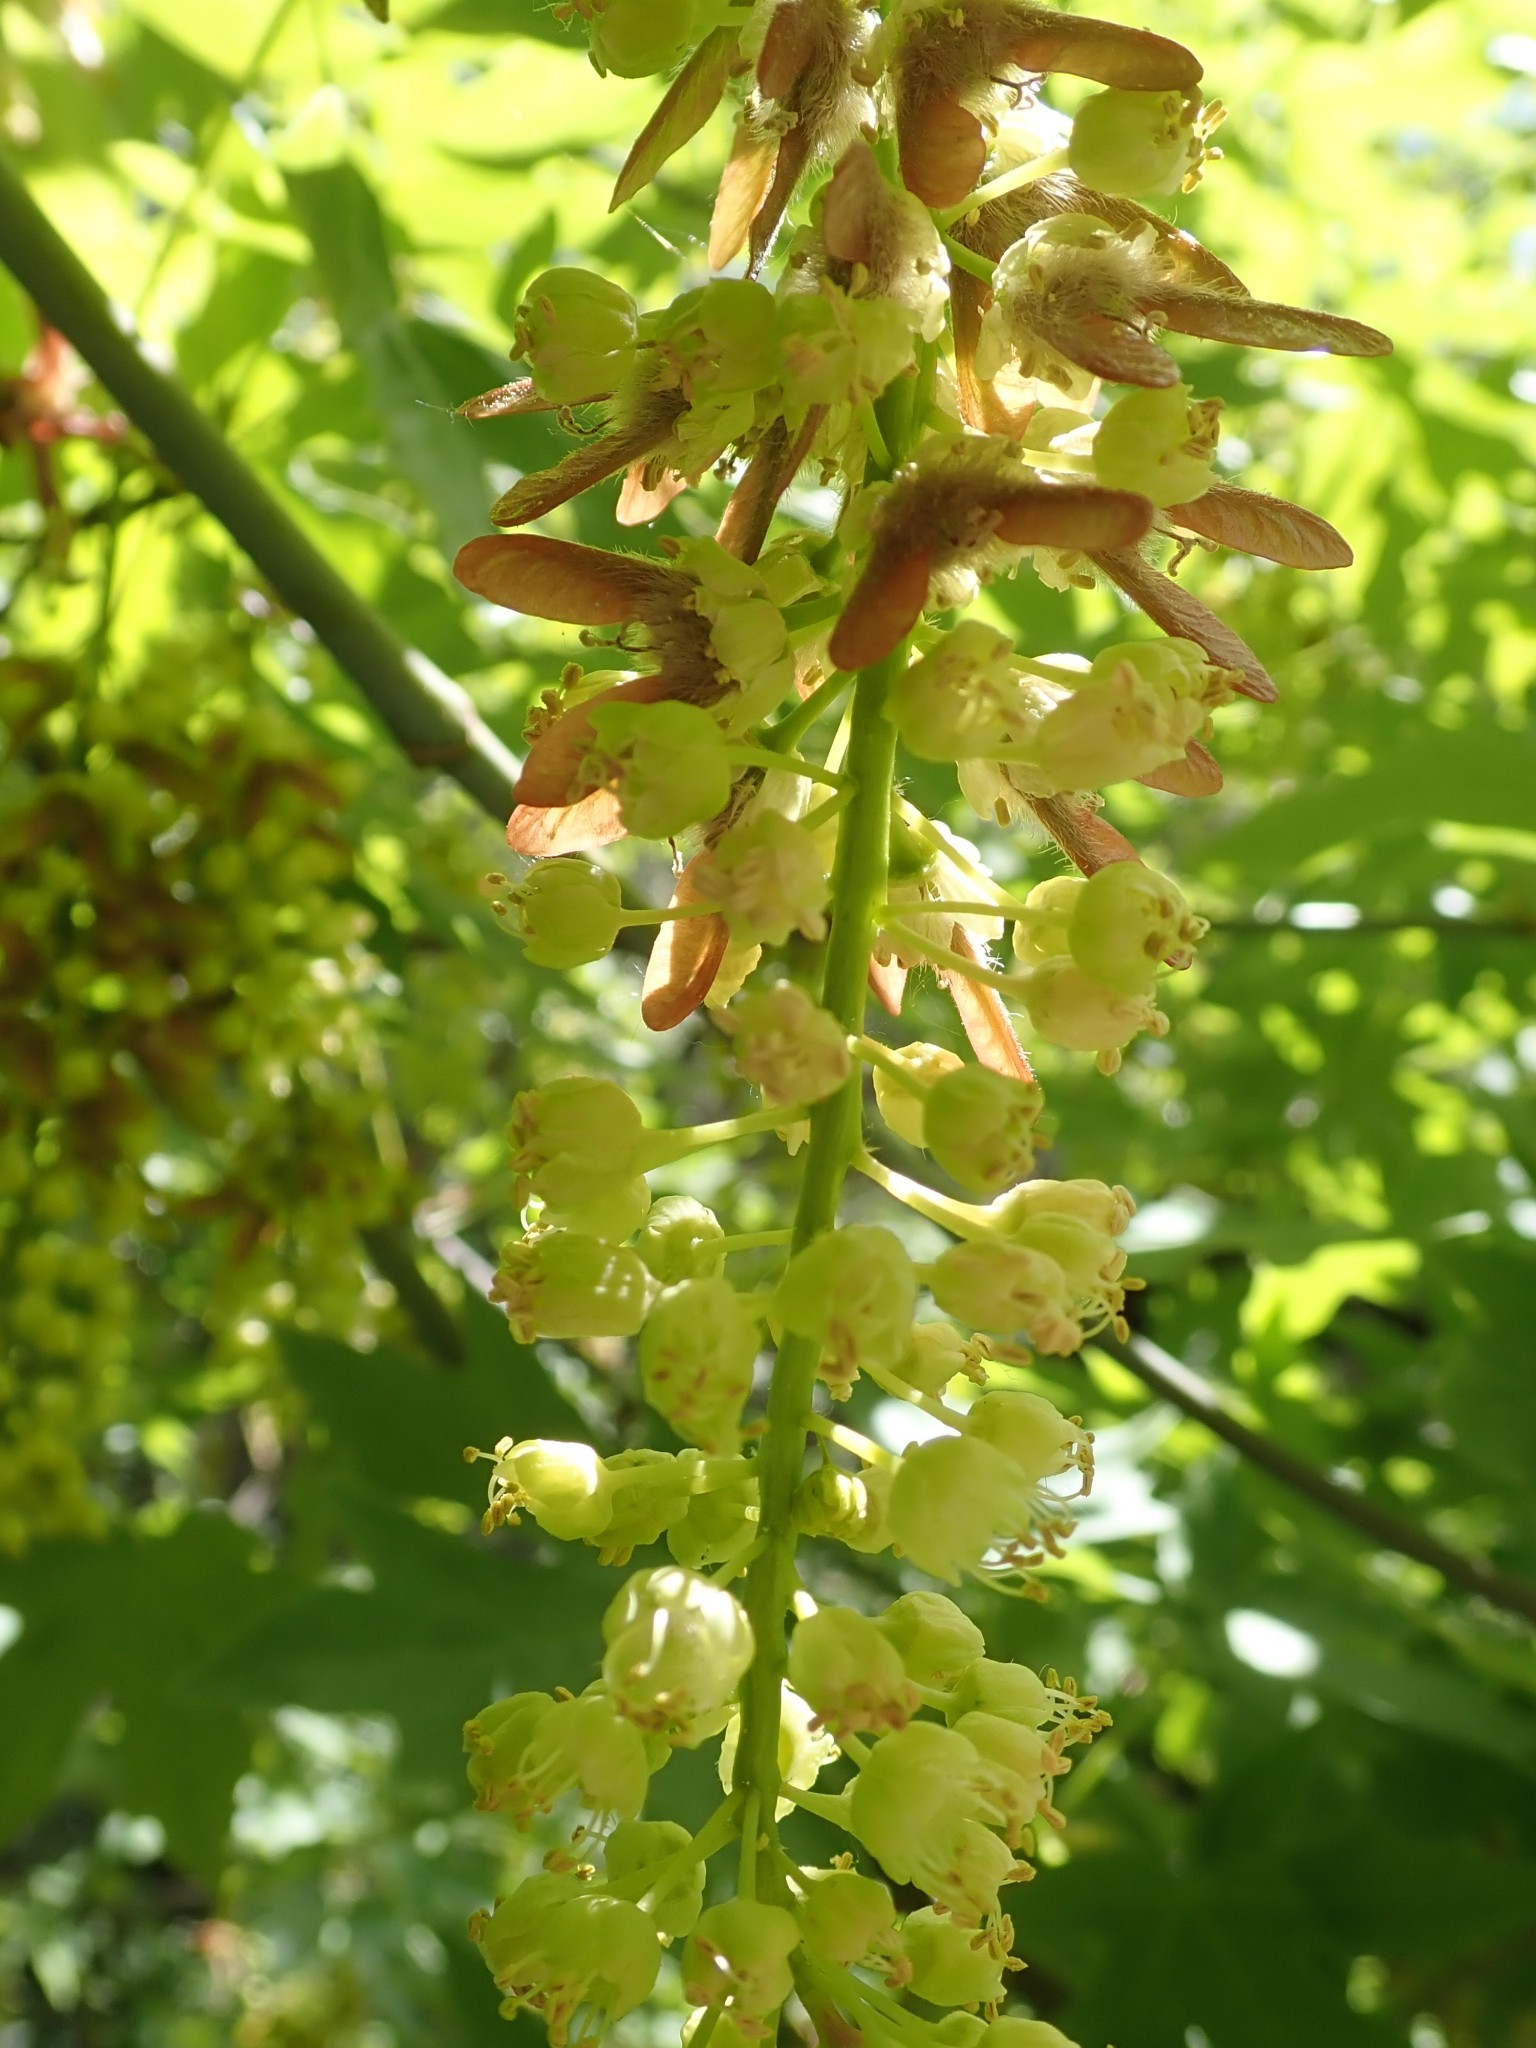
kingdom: Plantae
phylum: Tracheophyta
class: Magnoliopsida
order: Sapindales
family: Sapindaceae
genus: Acer
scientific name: Acer macrophyllum
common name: Oregon maple
